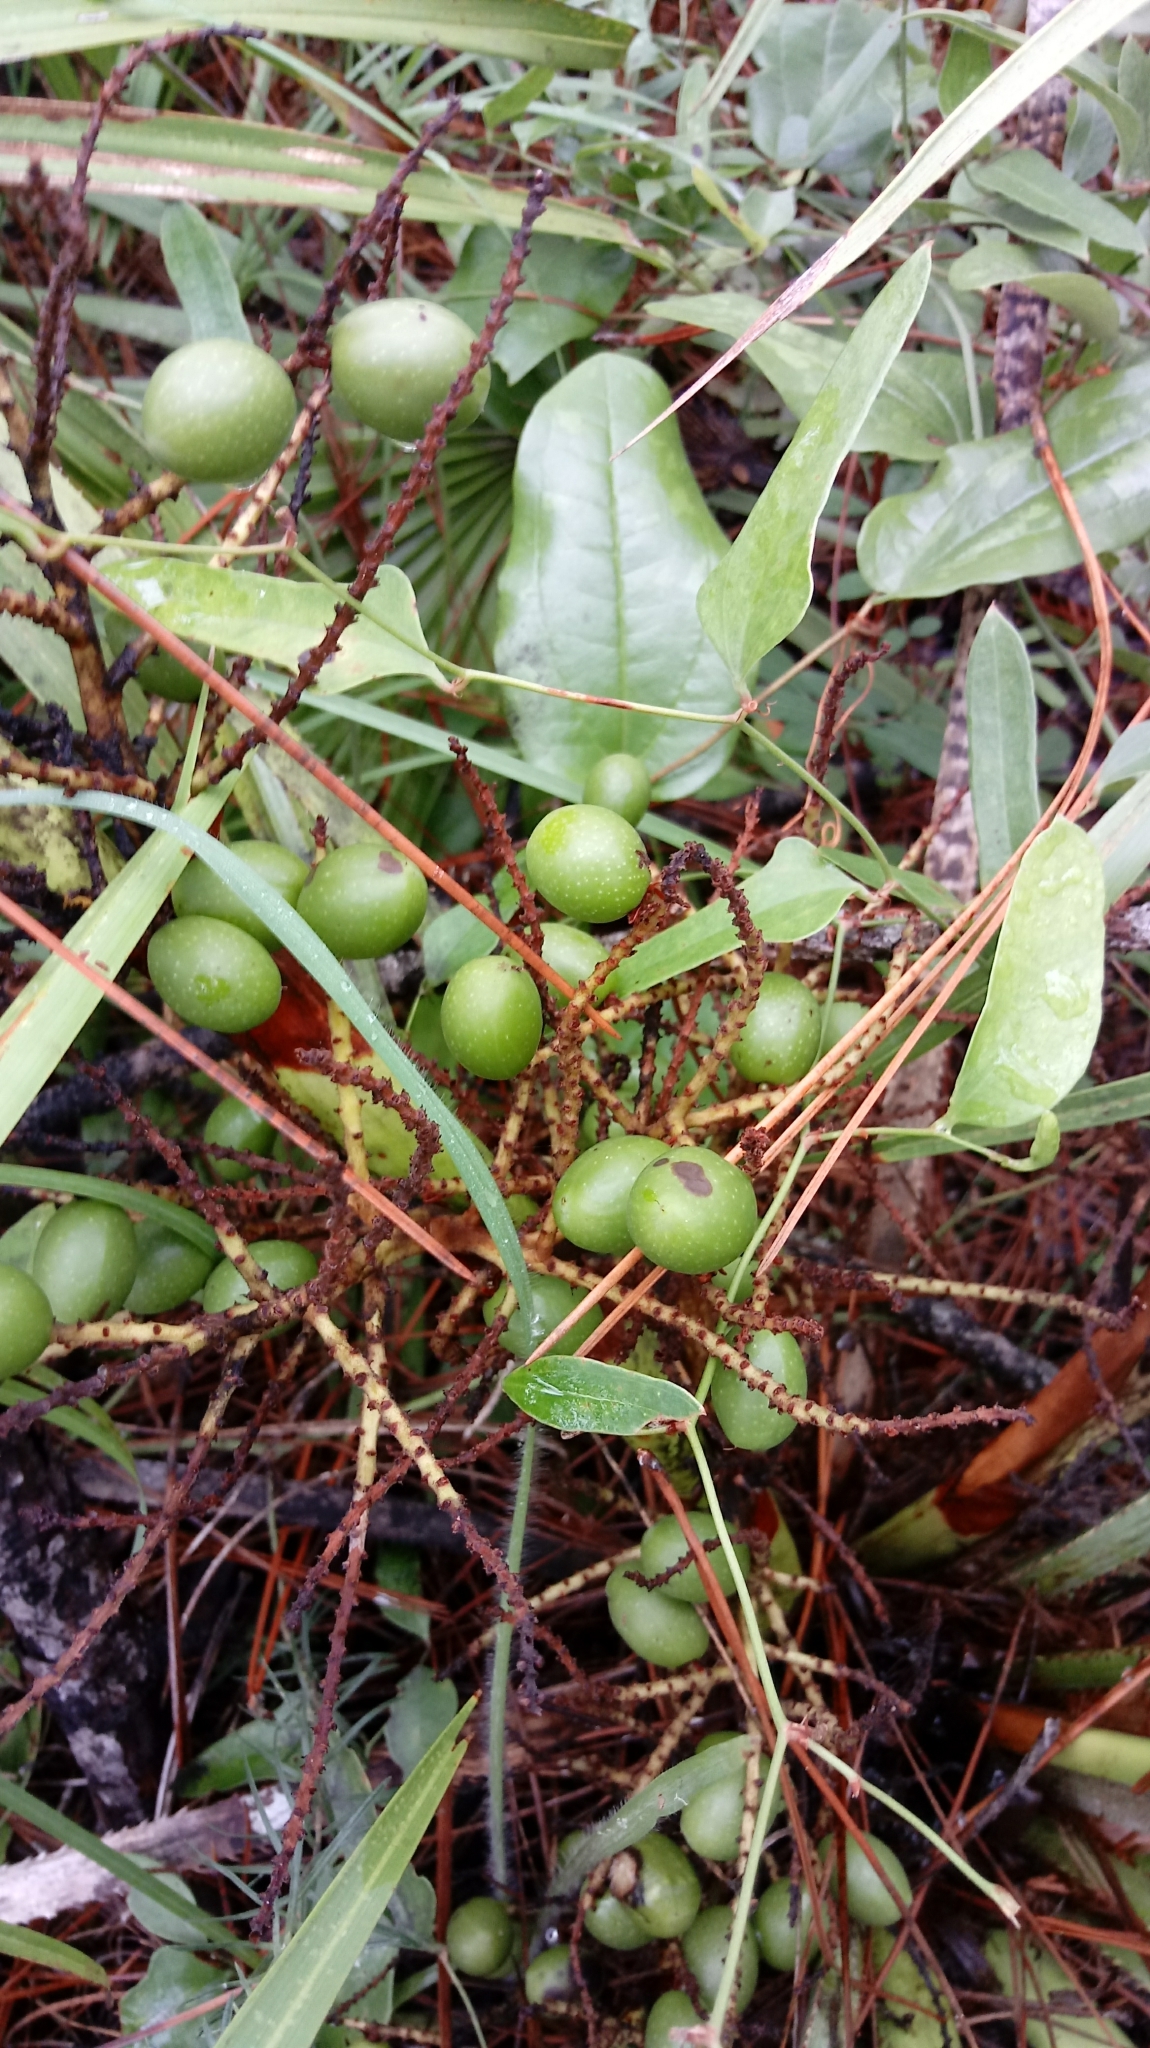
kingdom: Plantae
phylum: Tracheophyta
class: Liliopsida
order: Arecales
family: Arecaceae
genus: Serenoa
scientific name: Serenoa repens
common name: Saw-palmetto
